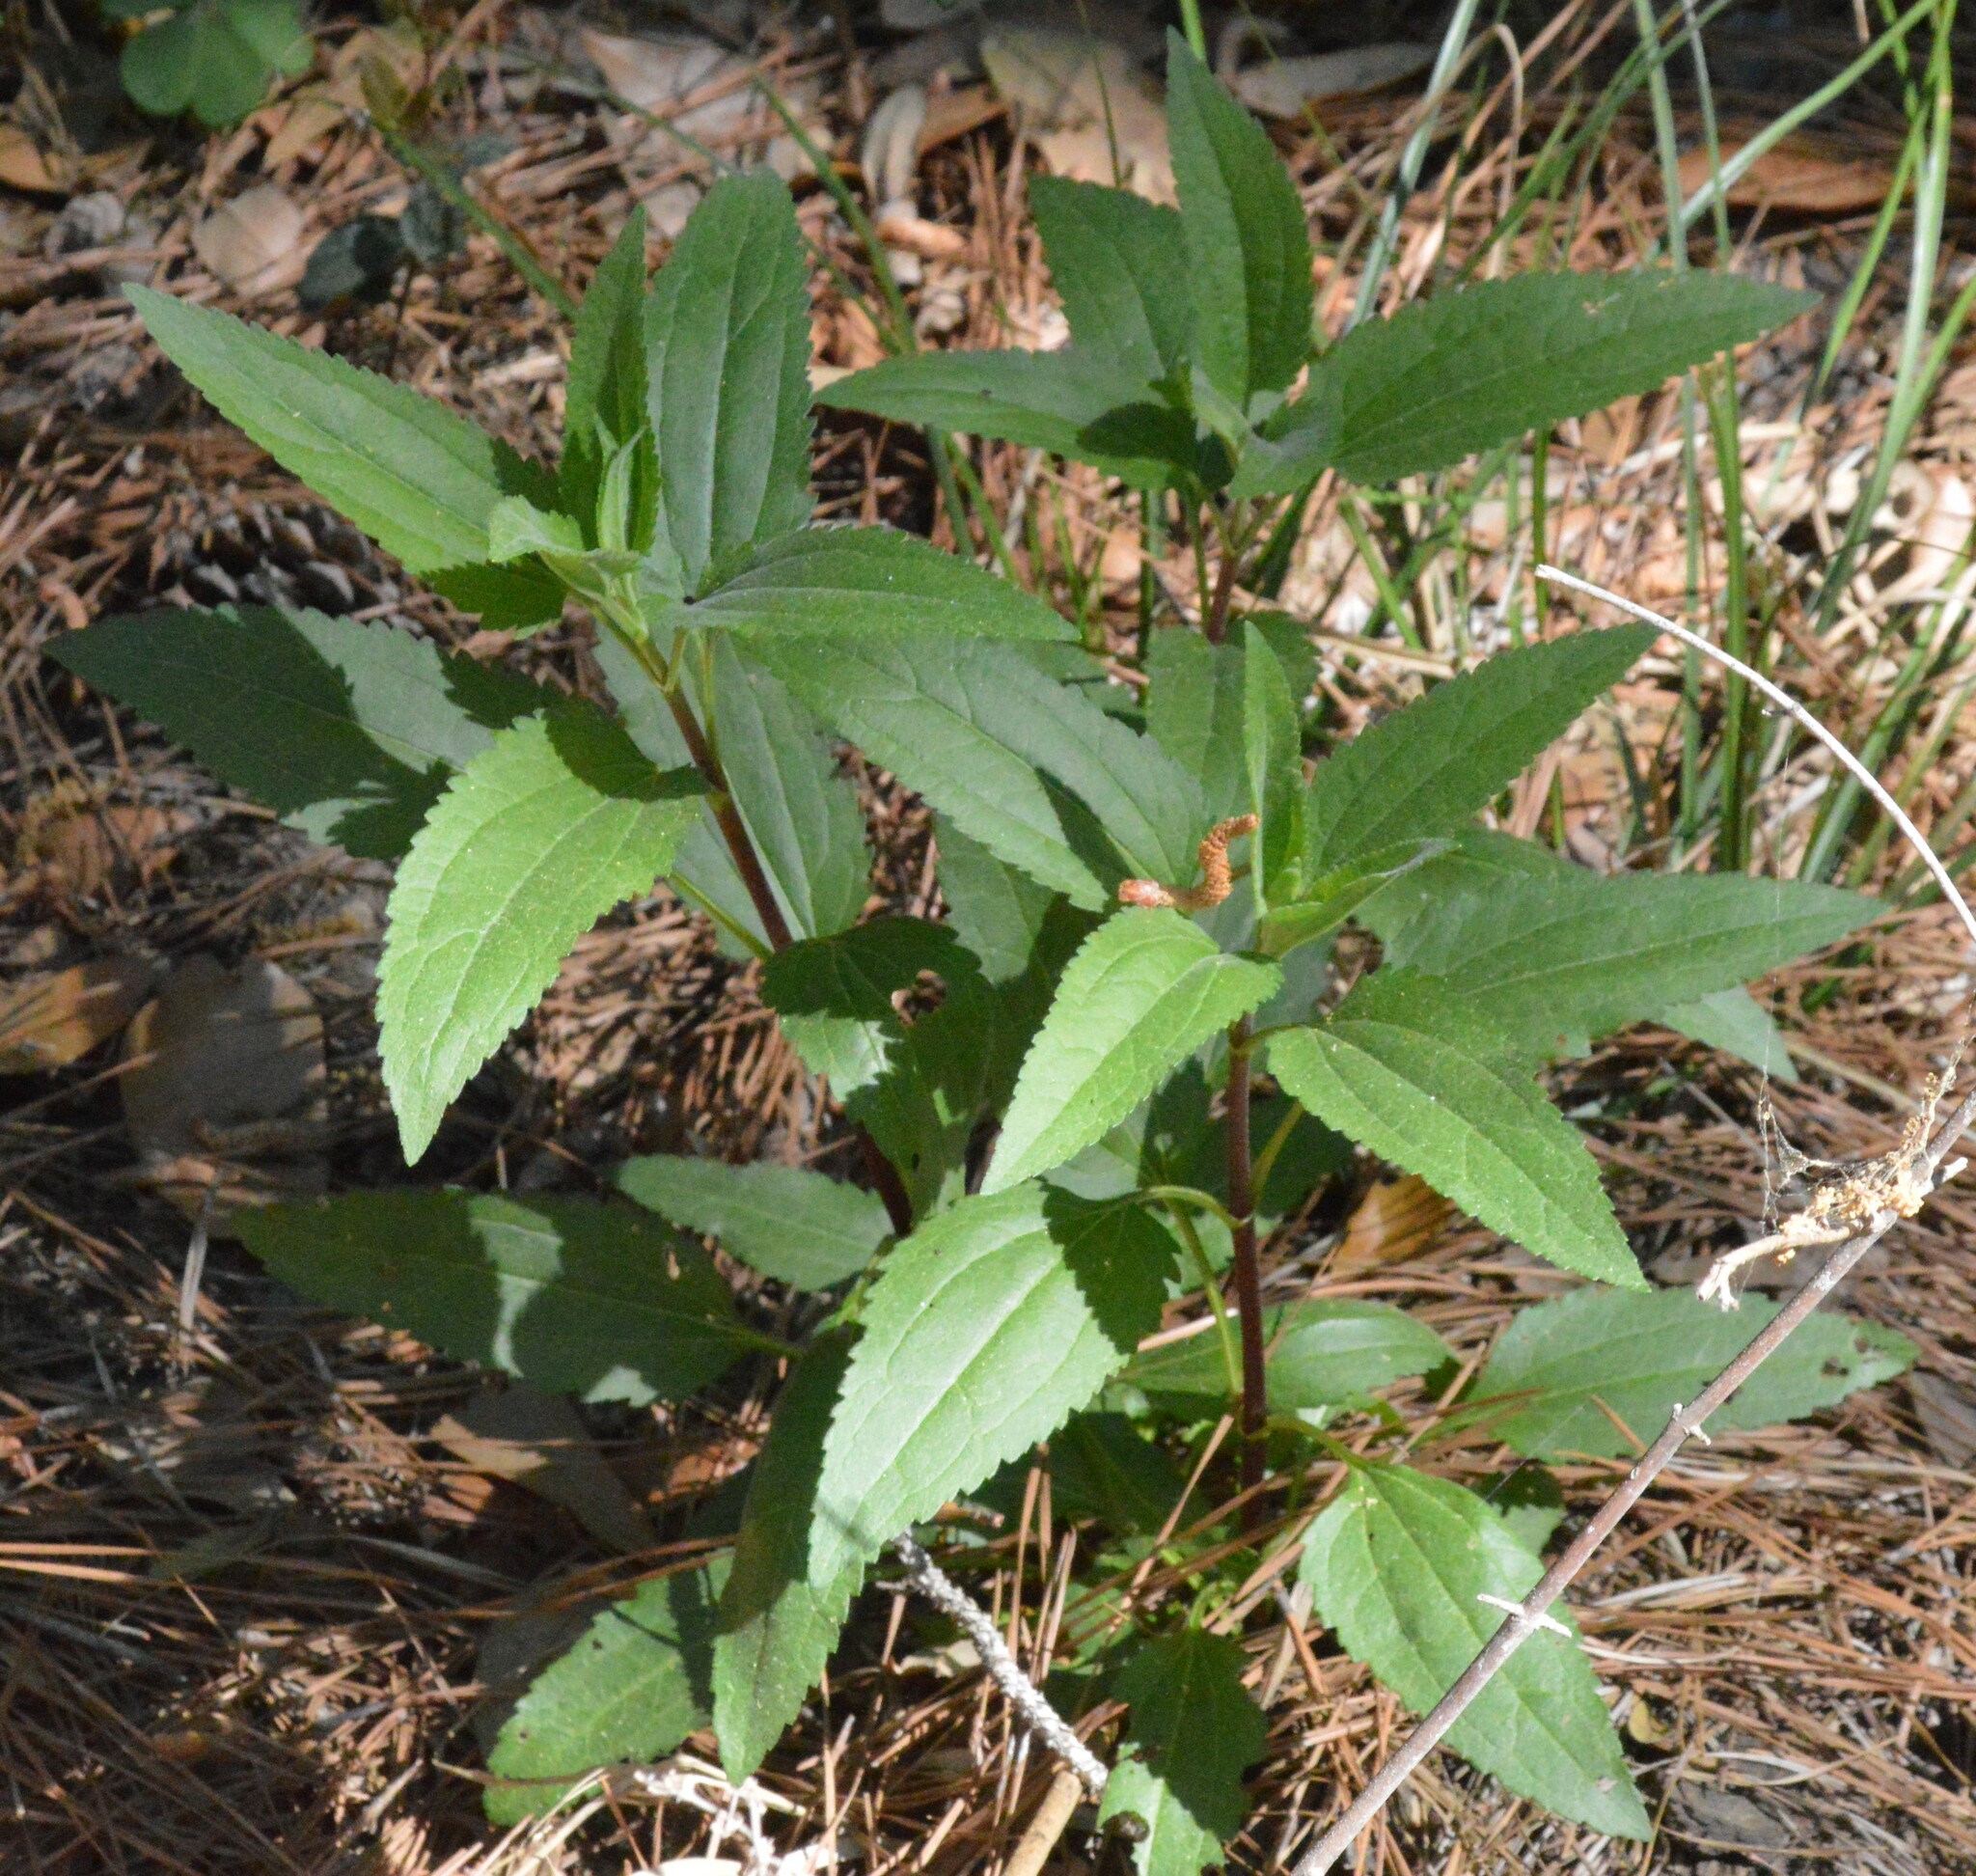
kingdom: Plantae
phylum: Tracheophyta
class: Magnoliopsida
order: Asterales
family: Asteraceae
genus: Eupatorium
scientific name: Eupatorium serotinum
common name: Late boneset
